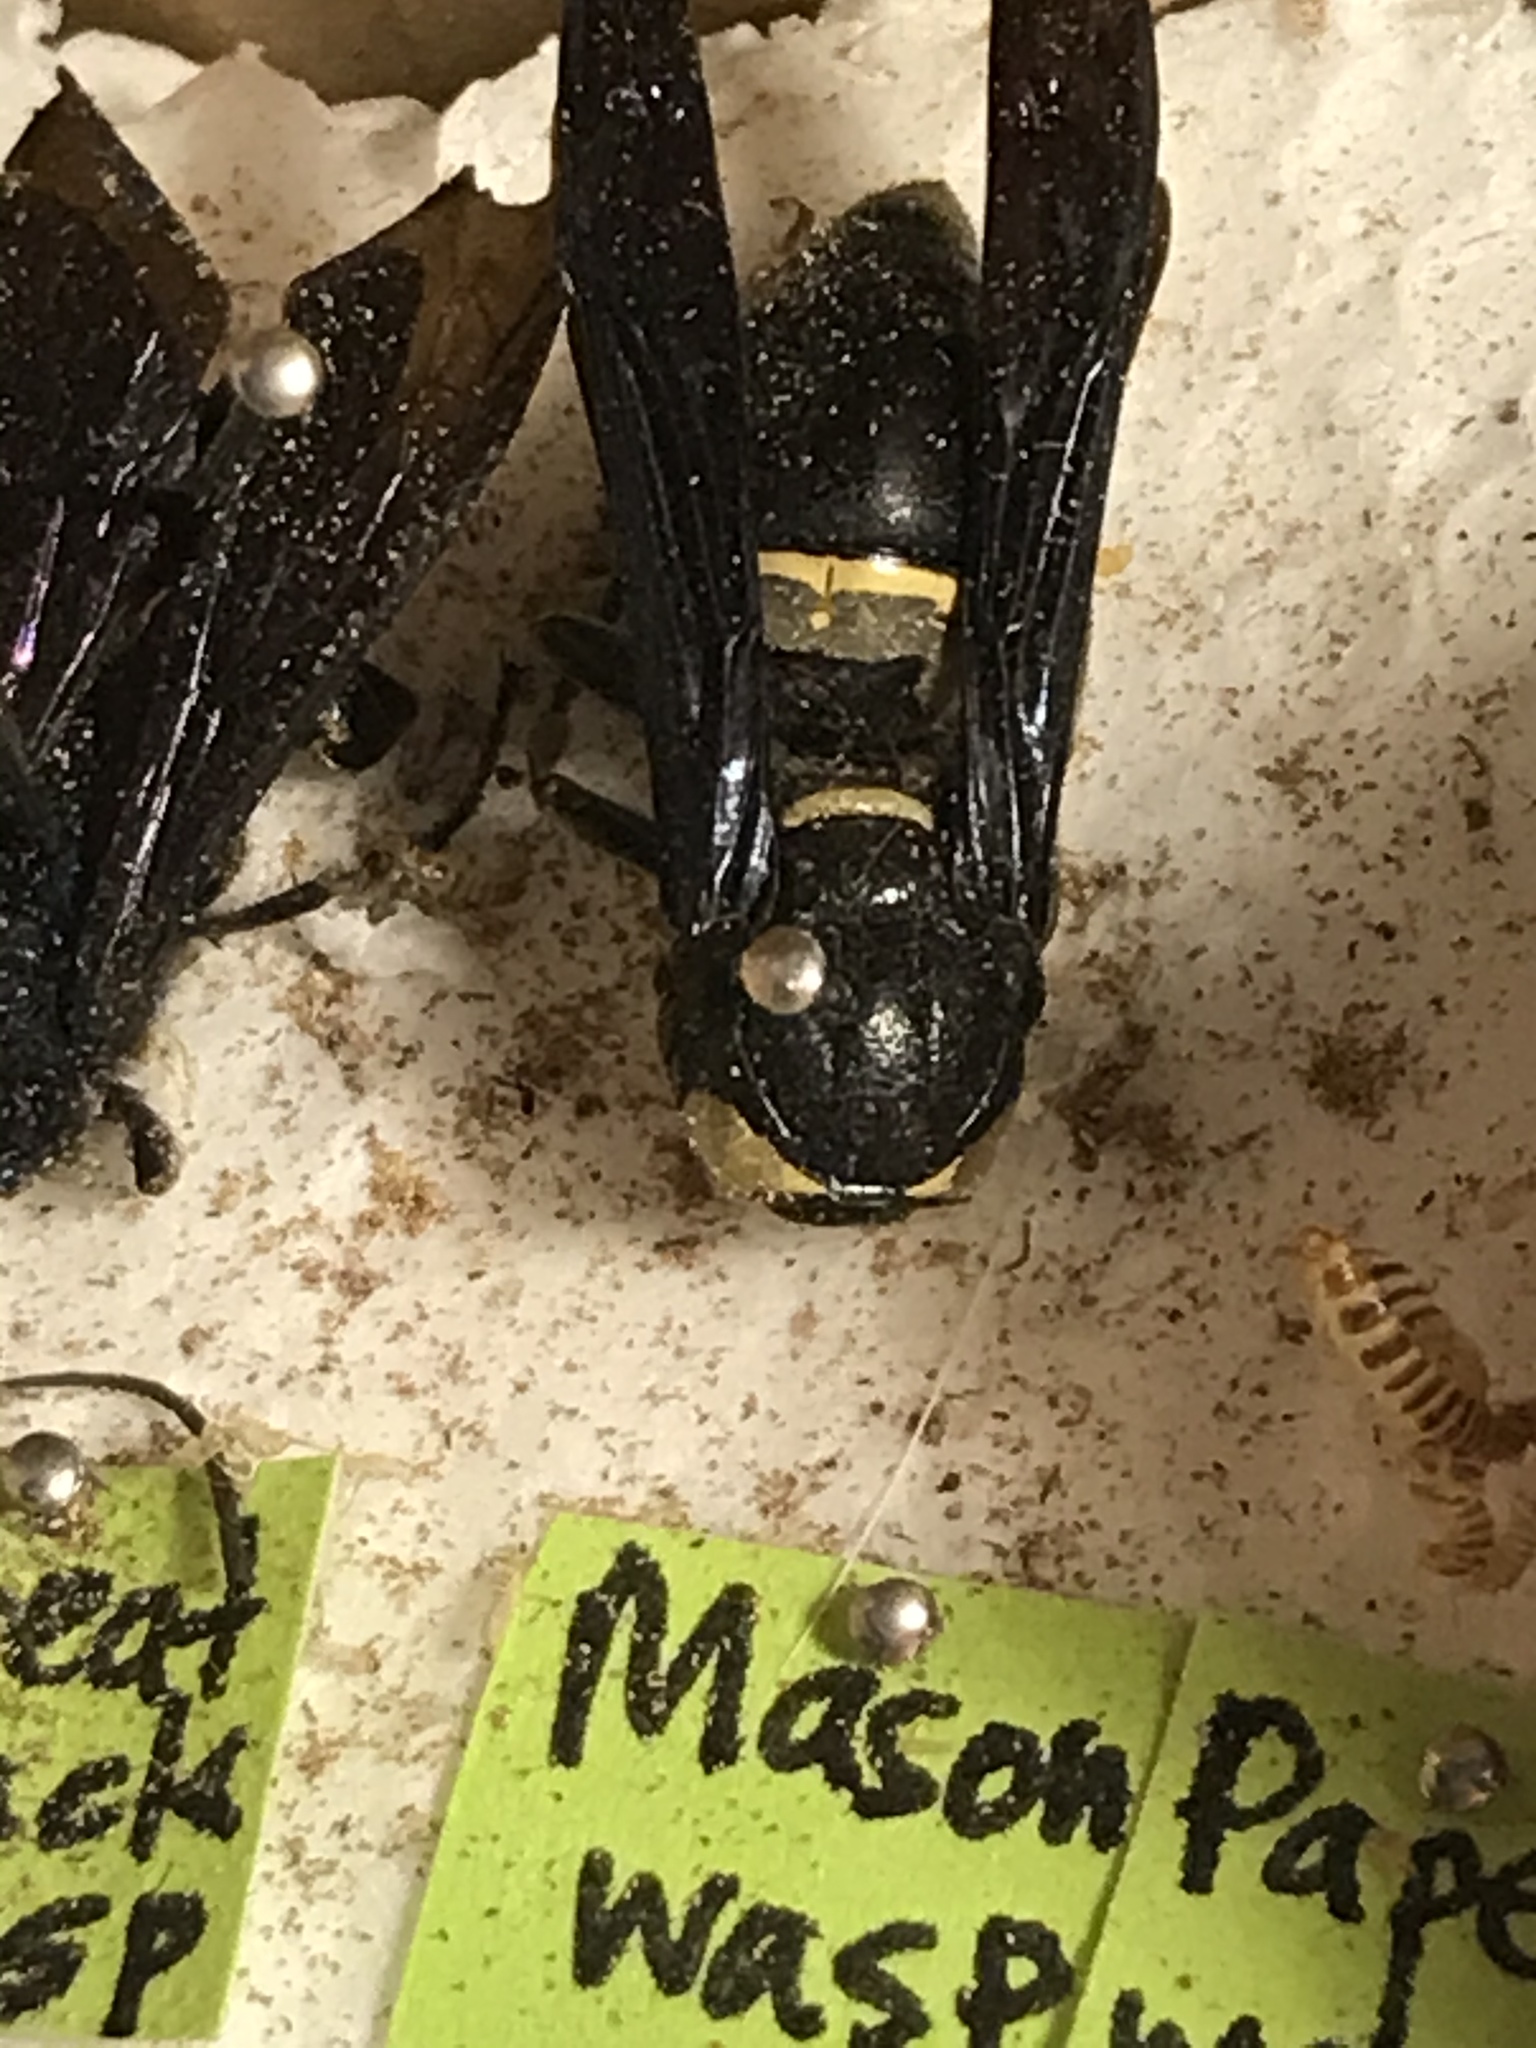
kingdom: Animalia
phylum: Arthropoda
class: Insecta
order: Hymenoptera
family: Eumenidae
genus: Monobia
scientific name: Monobia quadridens
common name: Four-toothed mason wasp
